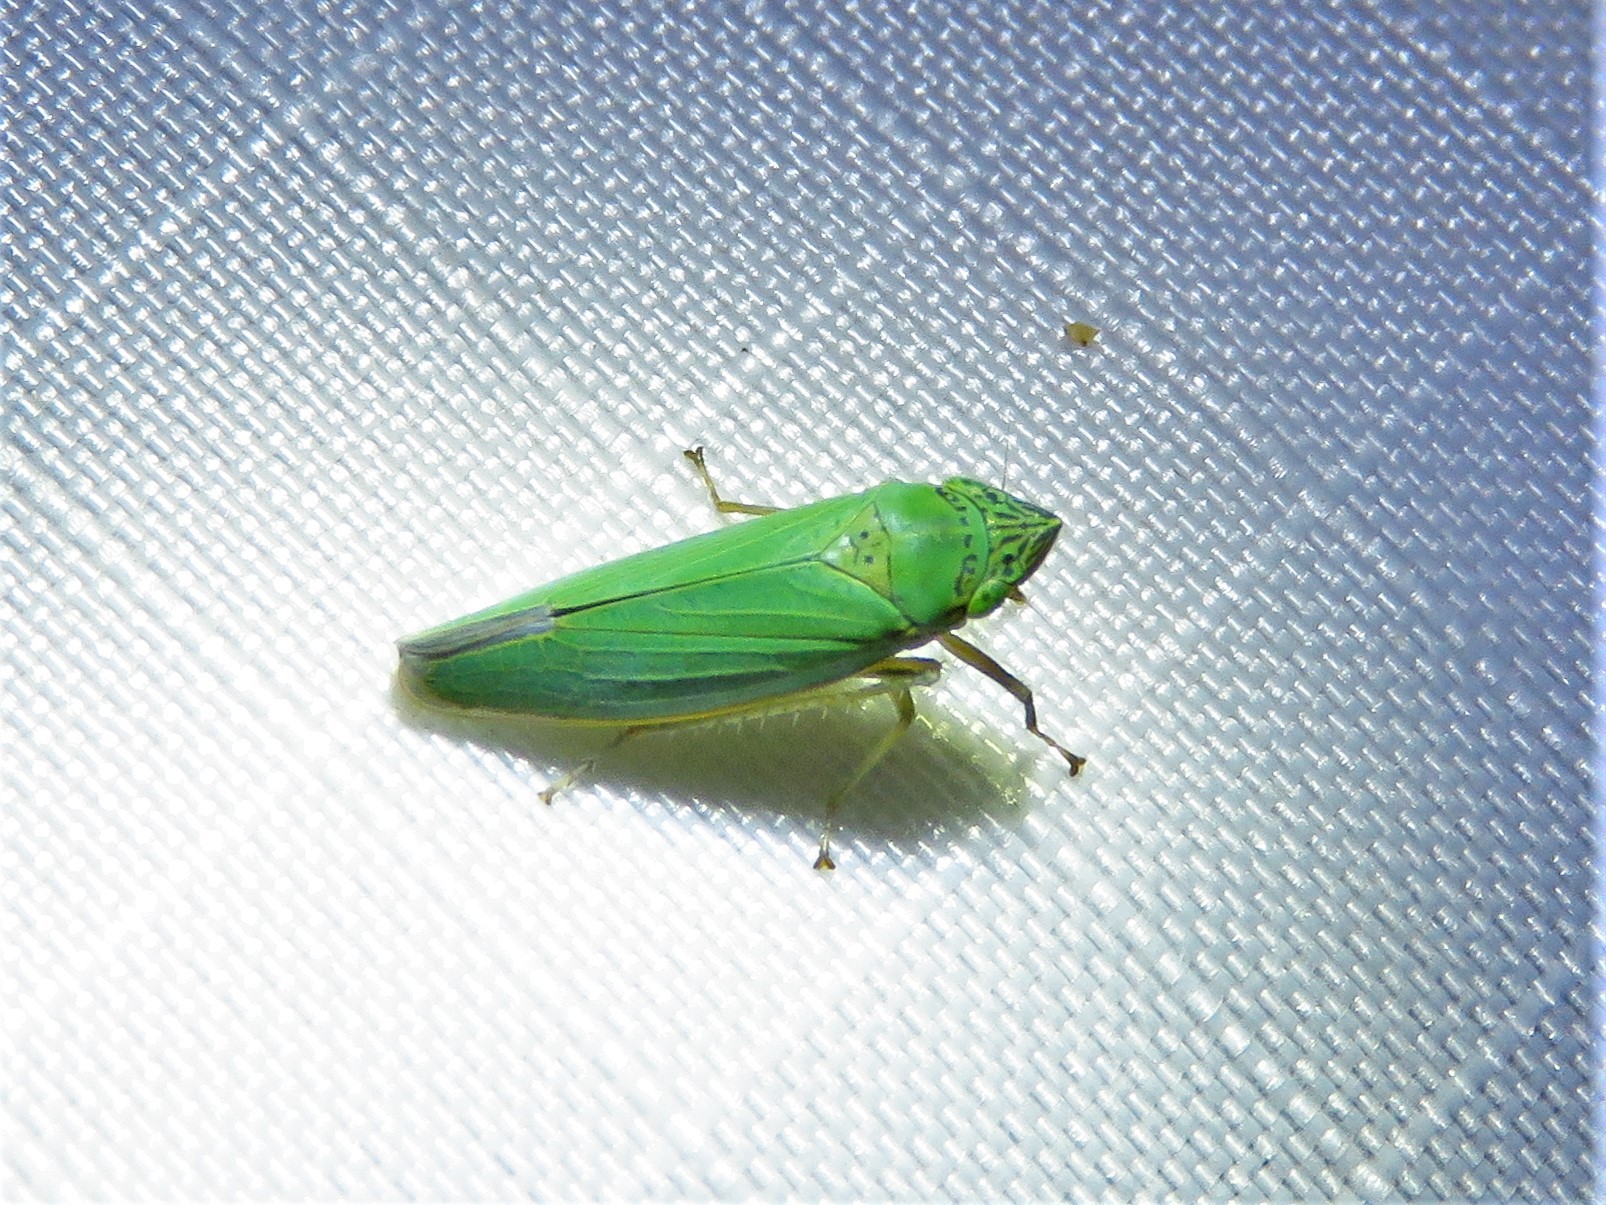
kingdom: Animalia
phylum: Arthropoda
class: Insecta
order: Hemiptera
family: Cicadellidae
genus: Draeculacephala
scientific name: Draeculacephala inscripta
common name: Leafhopper
